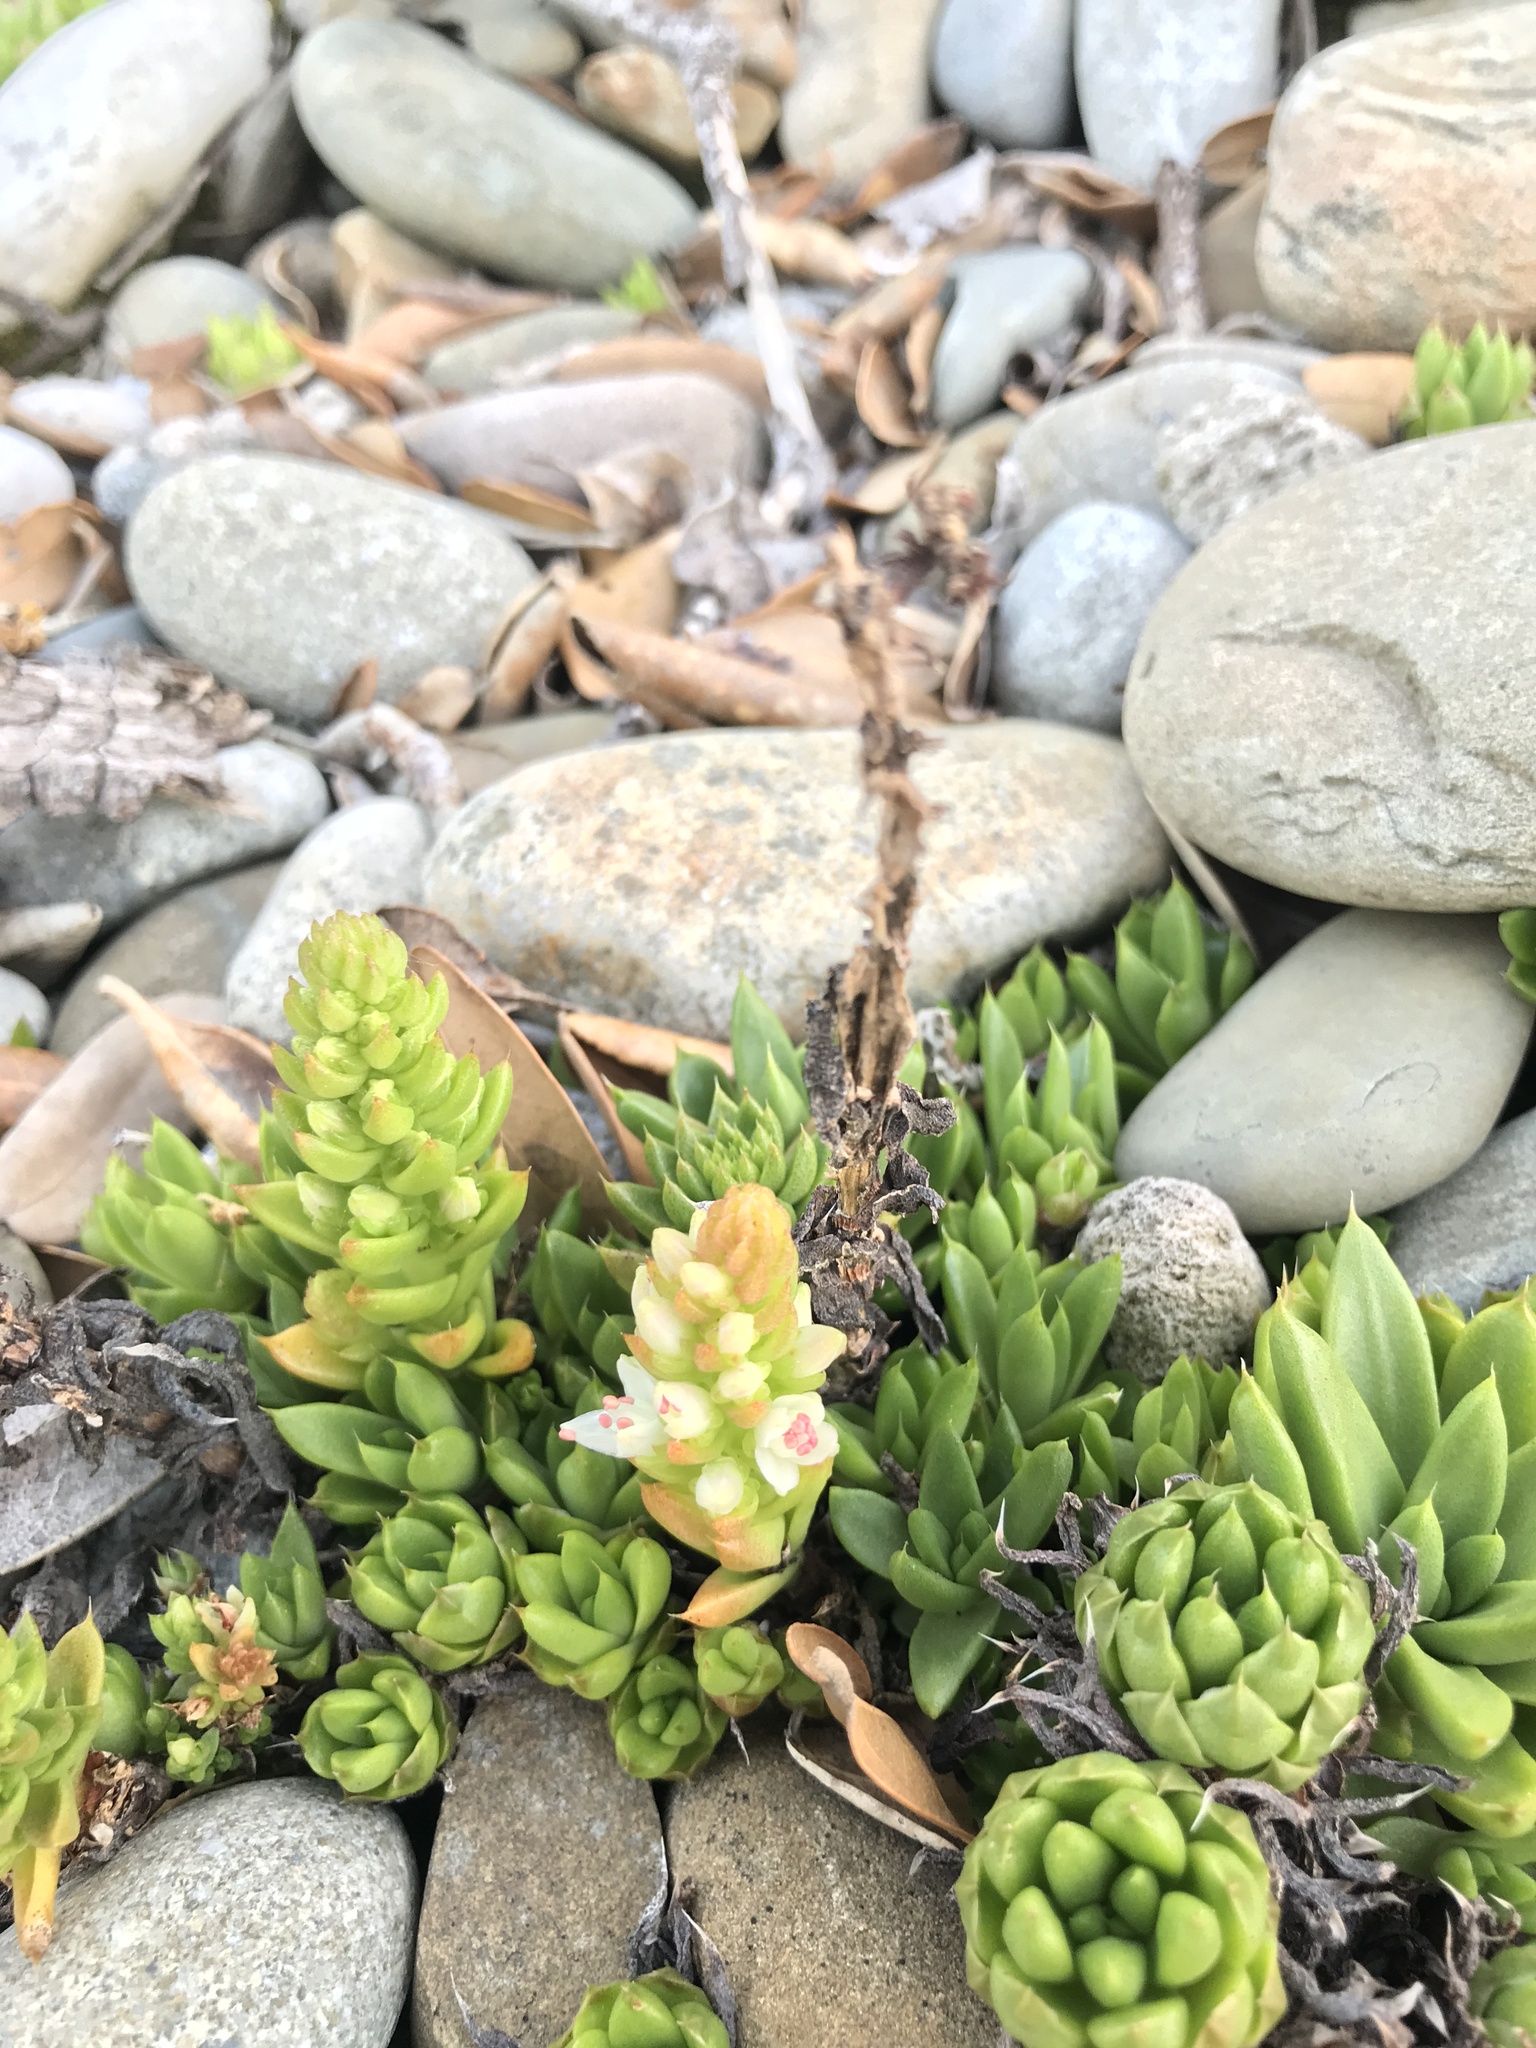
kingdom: Plantae
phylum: Tracheophyta
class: Magnoliopsida
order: Saxifragales
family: Crassulaceae
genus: Orostachys
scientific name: Orostachys japonica
